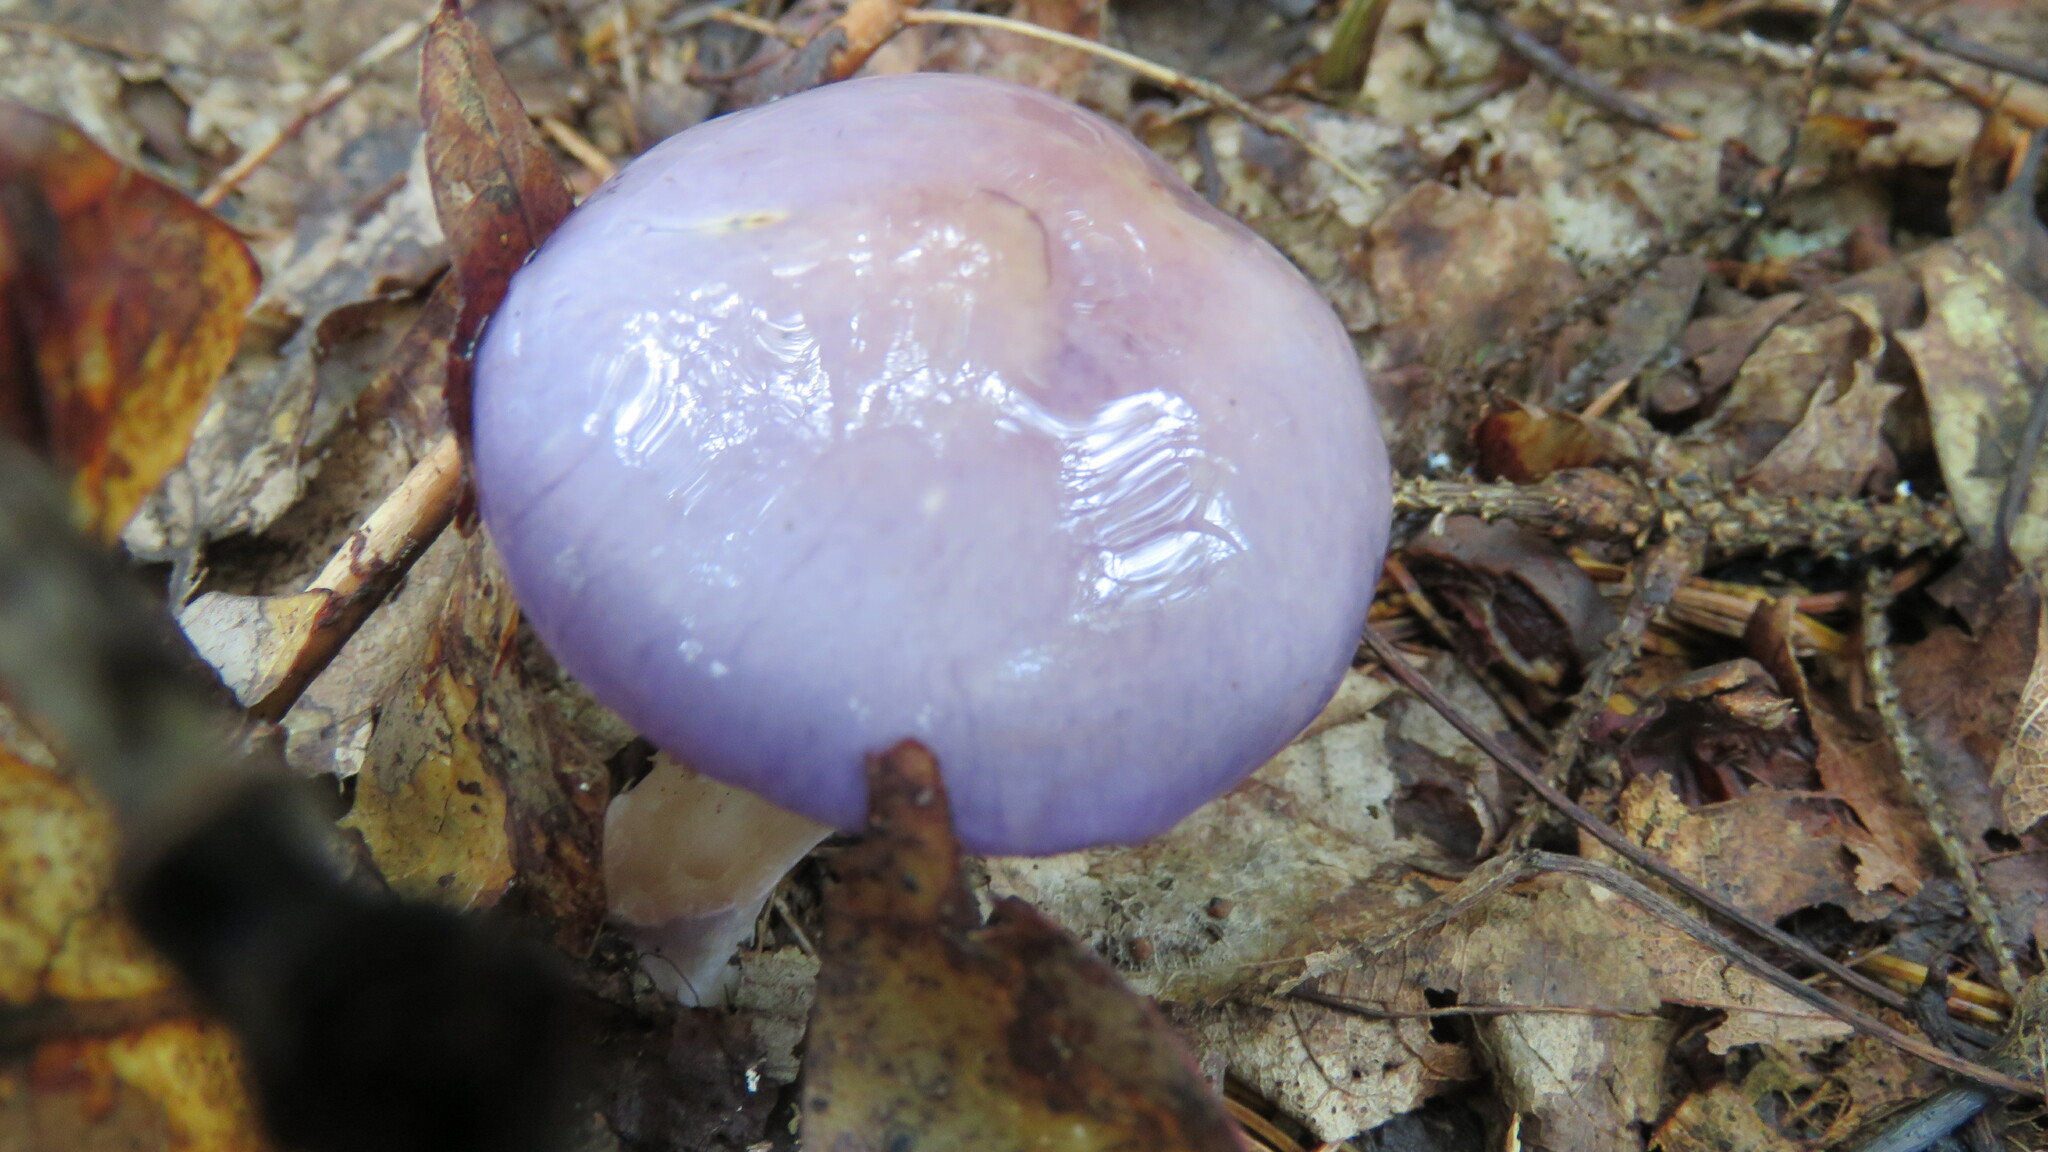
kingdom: Fungi
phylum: Basidiomycota
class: Agaricomycetes
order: Agaricales
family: Cortinariaceae
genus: Cortinarius
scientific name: Cortinarius iodes
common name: Viscid violet cort
